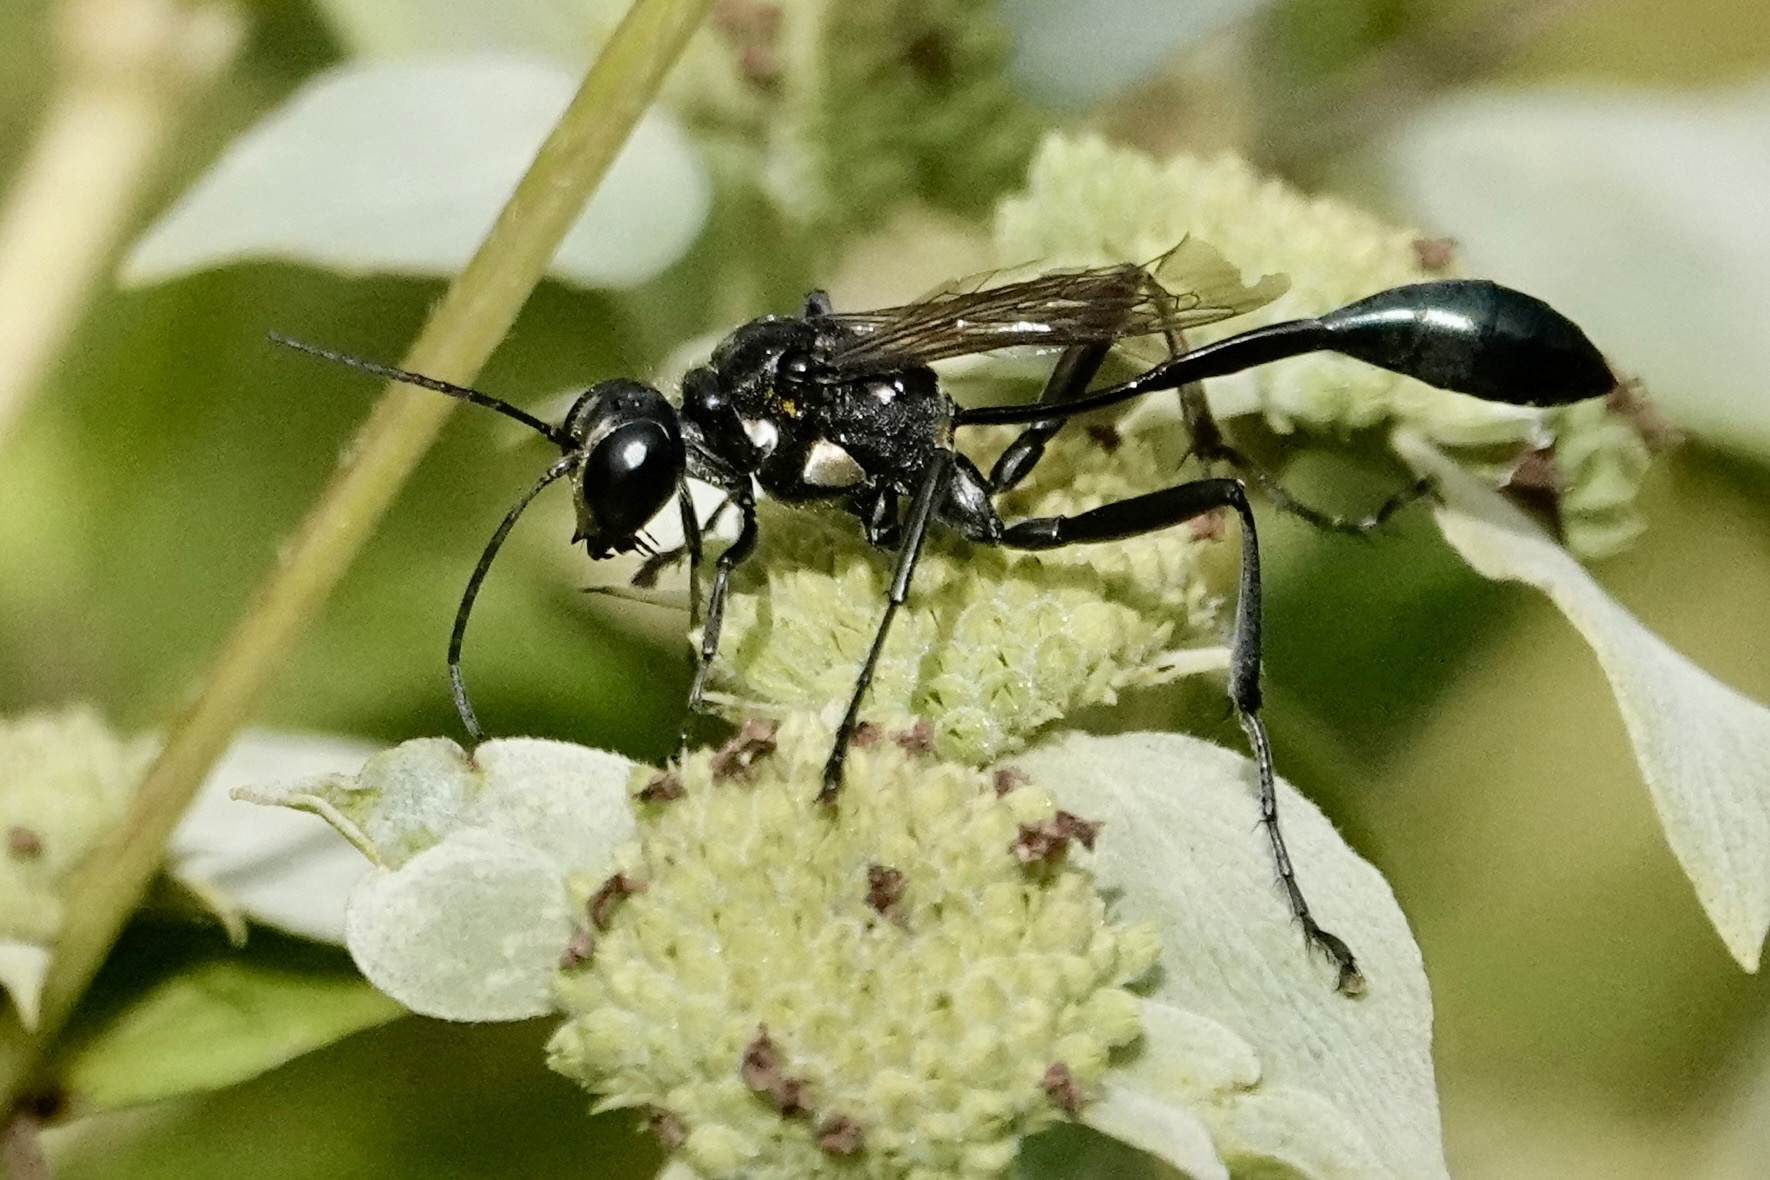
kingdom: Animalia
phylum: Arthropoda
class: Insecta
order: Hymenoptera
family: Sphecidae
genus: Eremnophila
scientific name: Eremnophila aureonotata
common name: Gold-marked thread-waisted wasp
